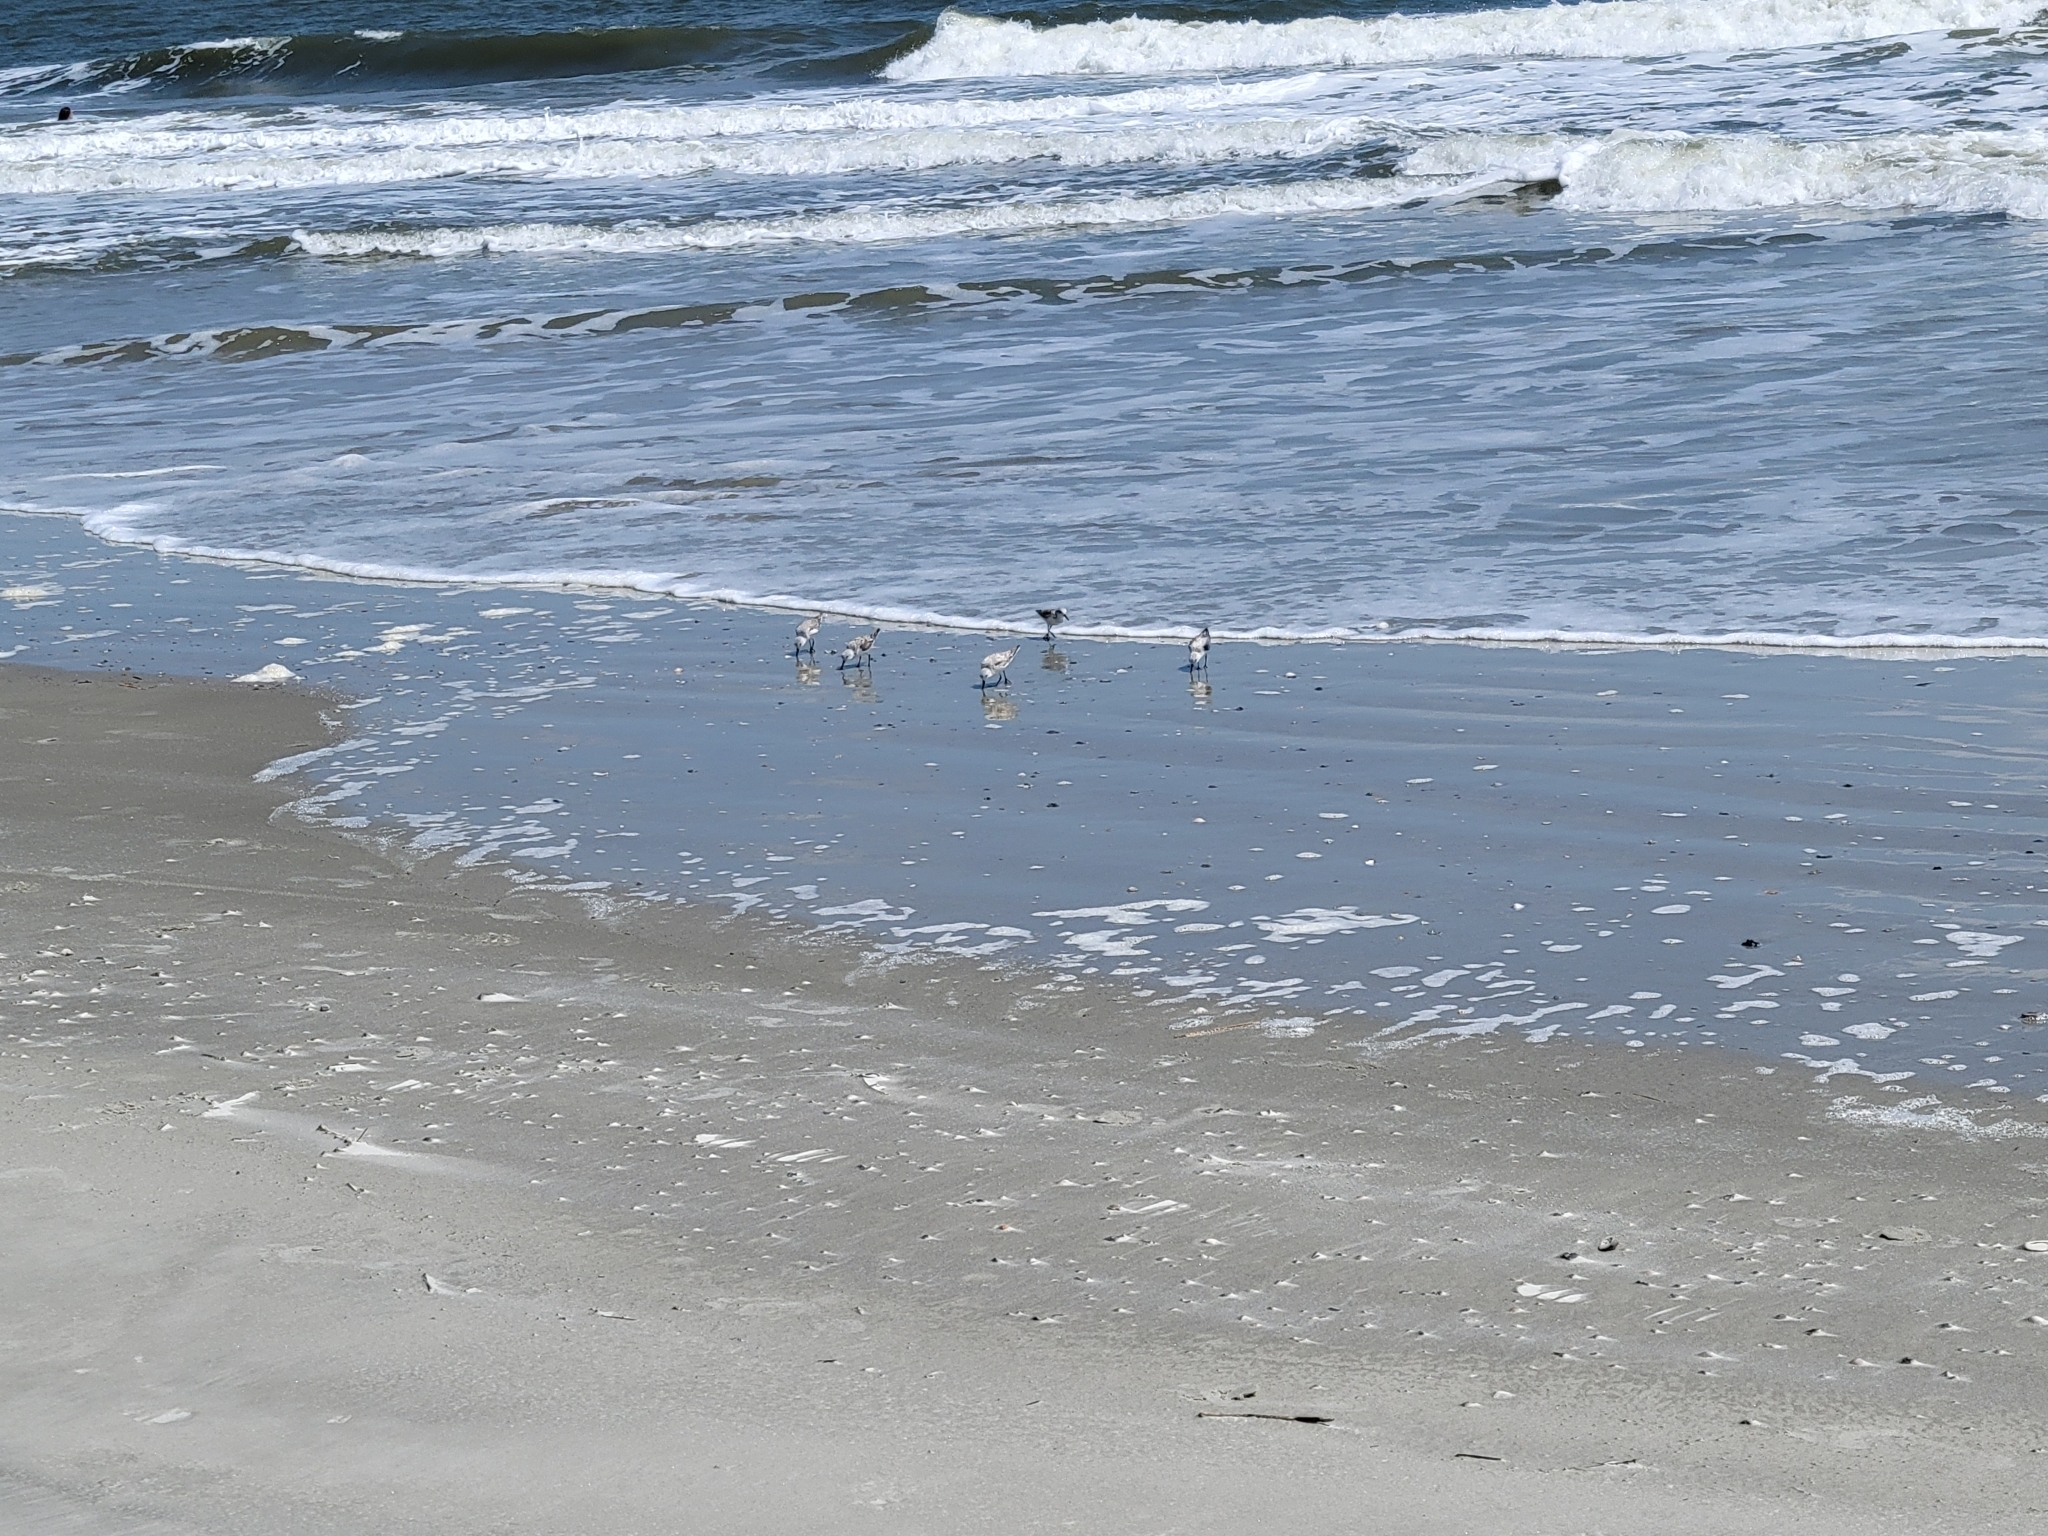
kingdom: Animalia
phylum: Chordata
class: Aves
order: Charadriiformes
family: Scolopacidae
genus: Calidris
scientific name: Calidris alba
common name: Sanderling
